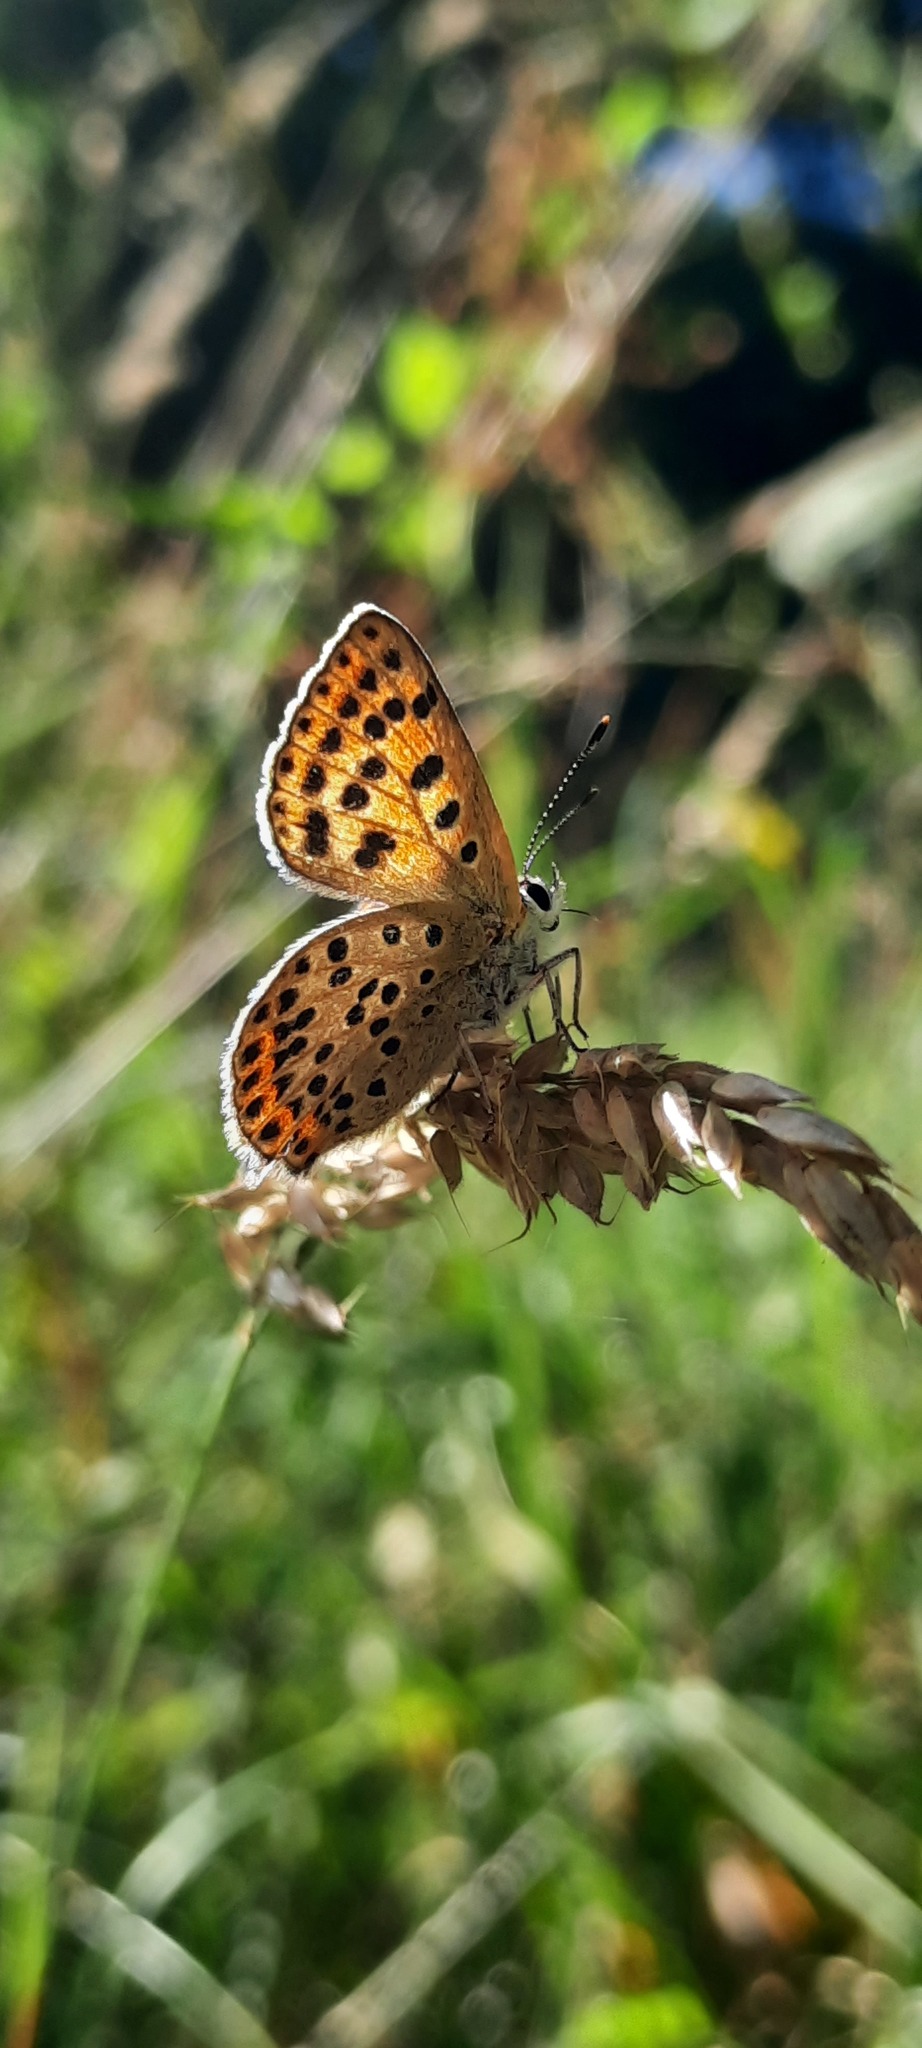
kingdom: Animalia
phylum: Arthropoda
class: Insecta
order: Lepidoptera
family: Lycaenidae
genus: Loweia
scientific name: Loweia tityrus
